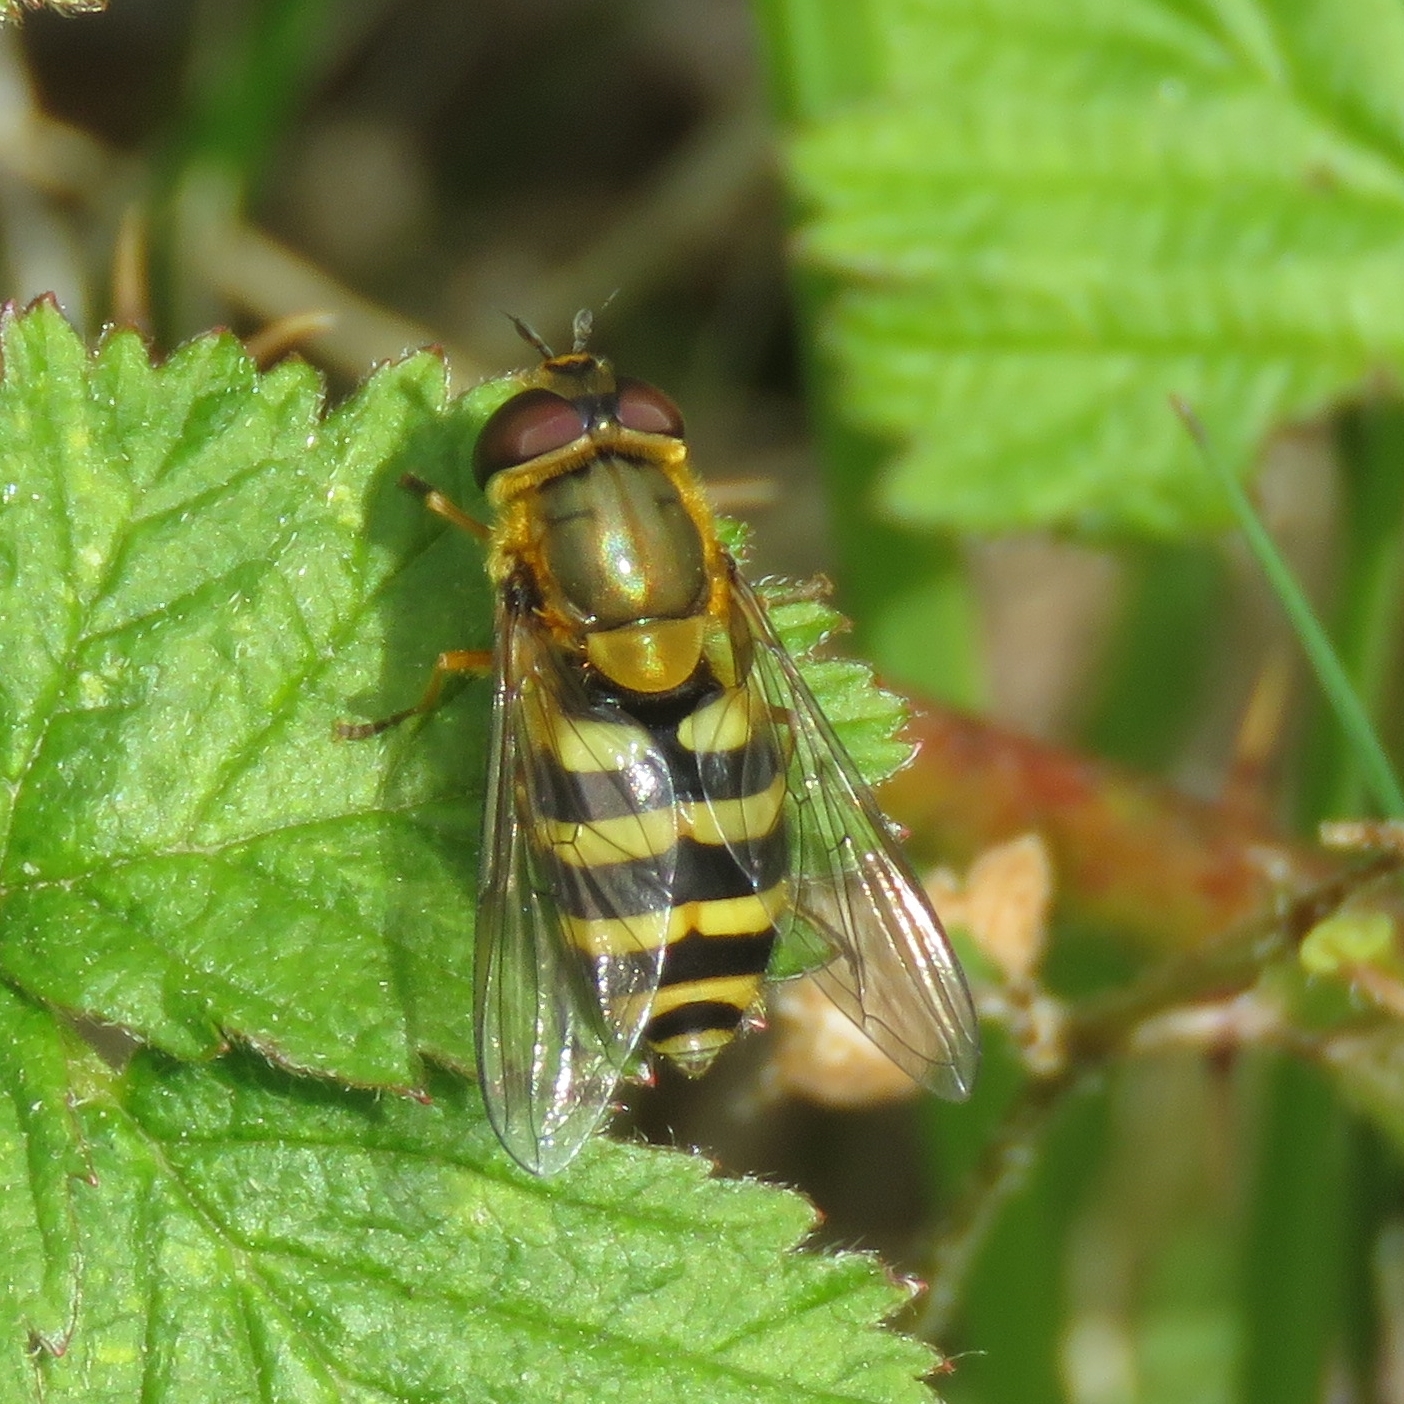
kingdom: Animalia
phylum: Arthropoda
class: Insecta
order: Diptera
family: Syrphidae
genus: Syrphus
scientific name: Syrphus
